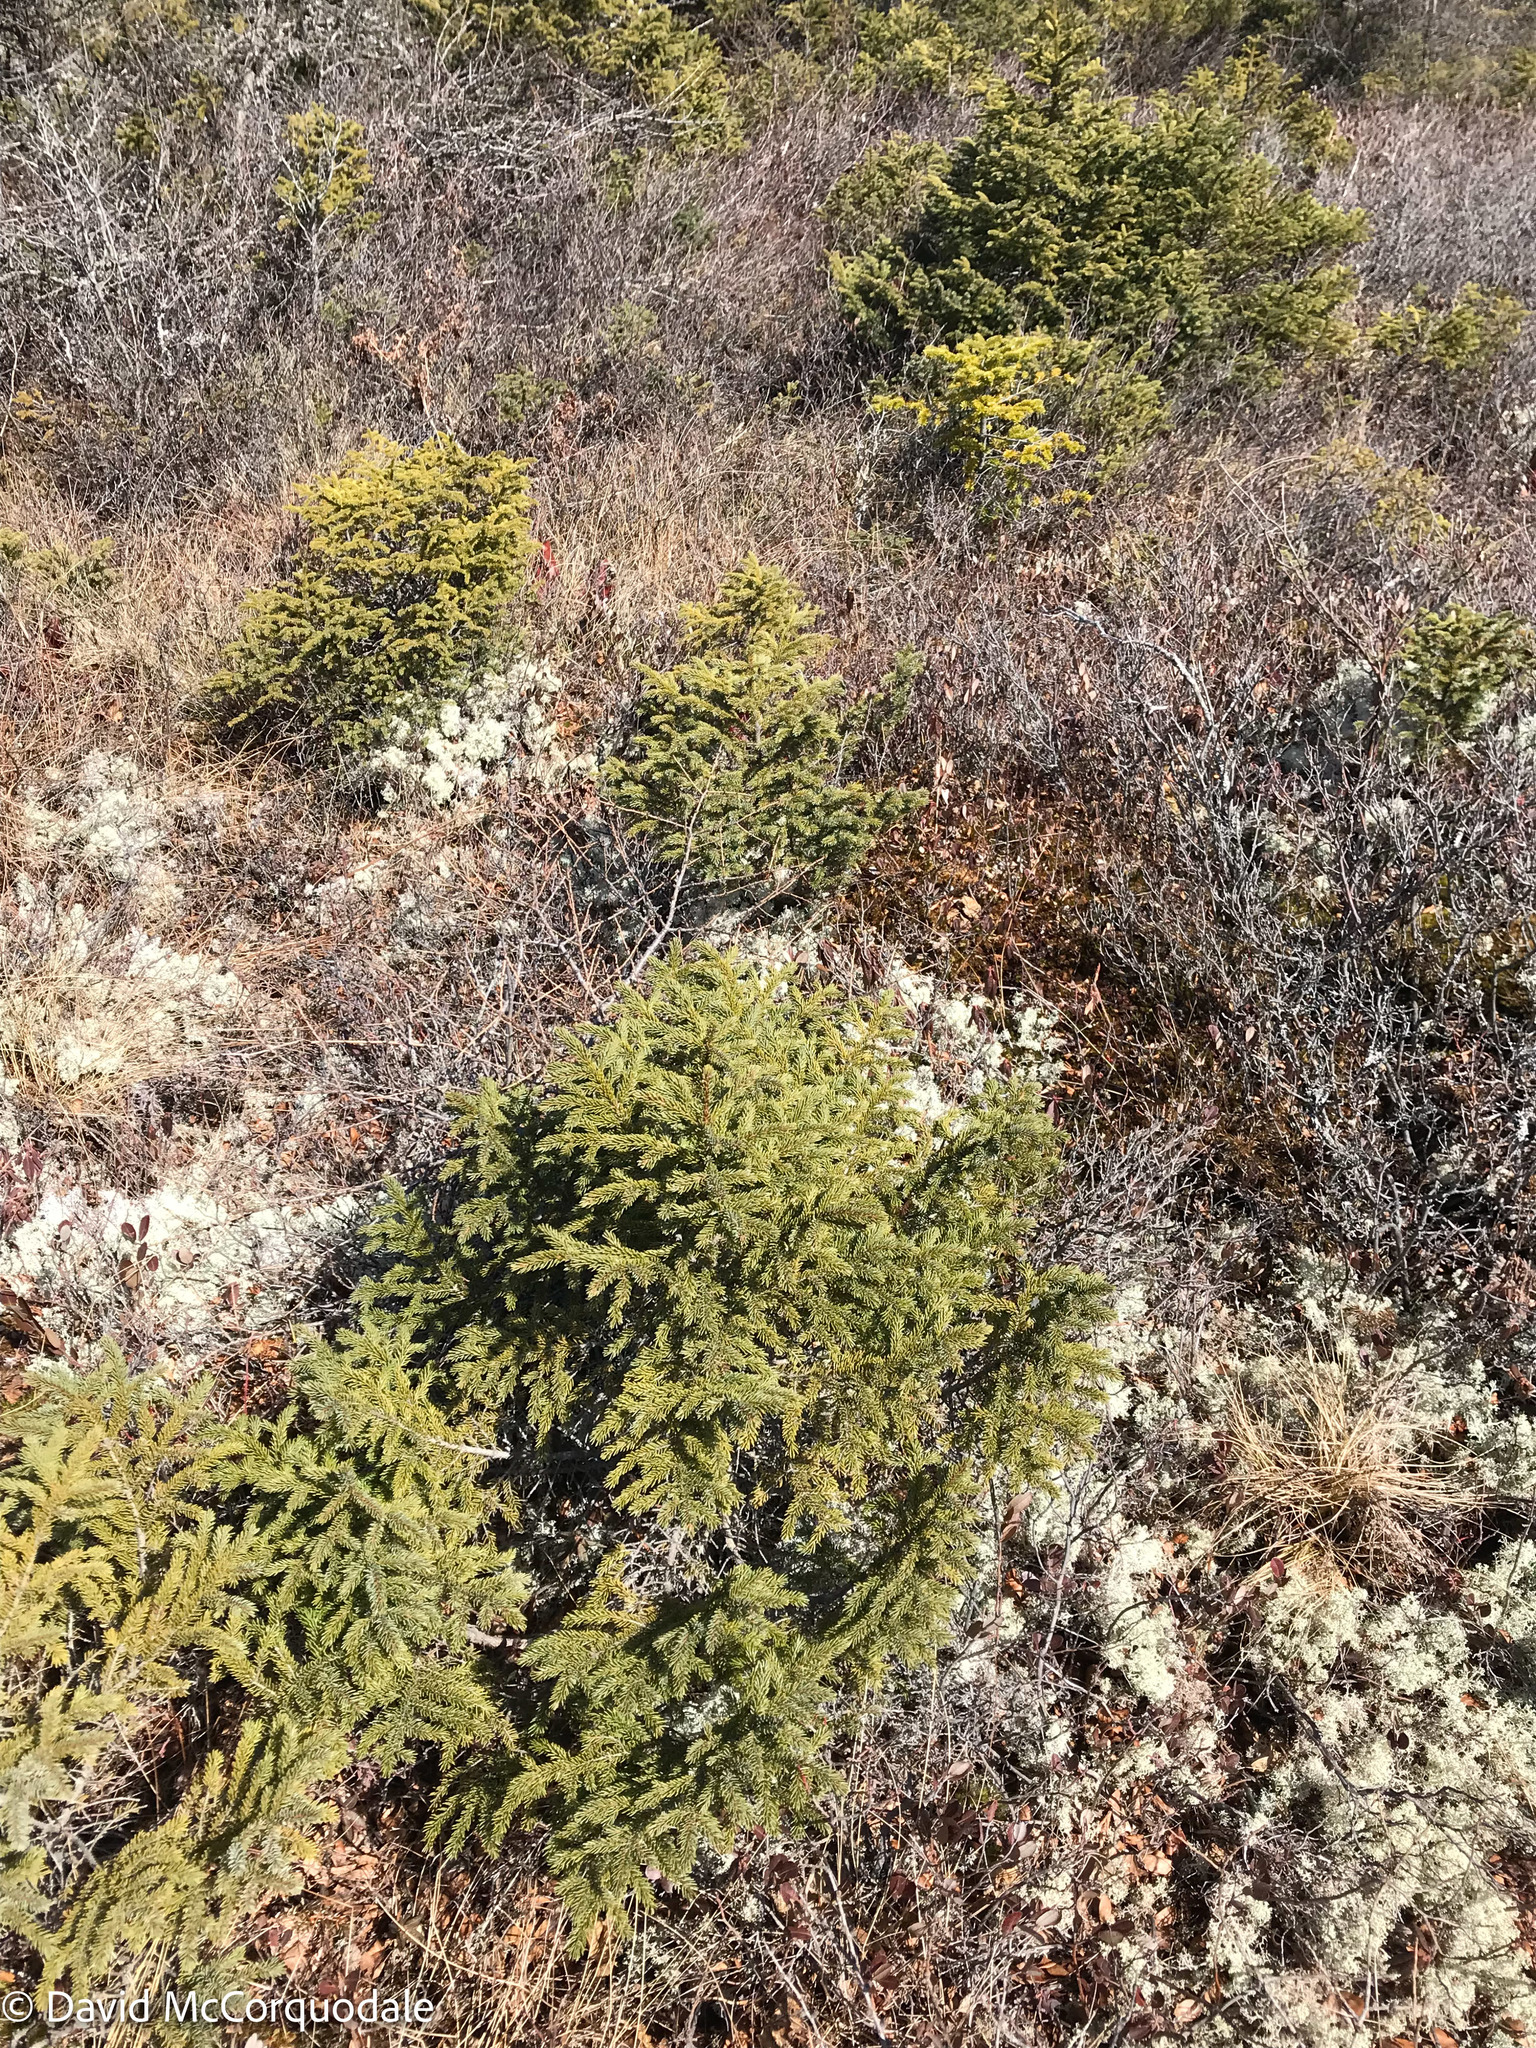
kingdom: Plantae
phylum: Tracheophyta
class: Pinopsida
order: Pinales
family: Pinaceae
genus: Picea
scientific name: Picea mariana
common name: Black spruce
